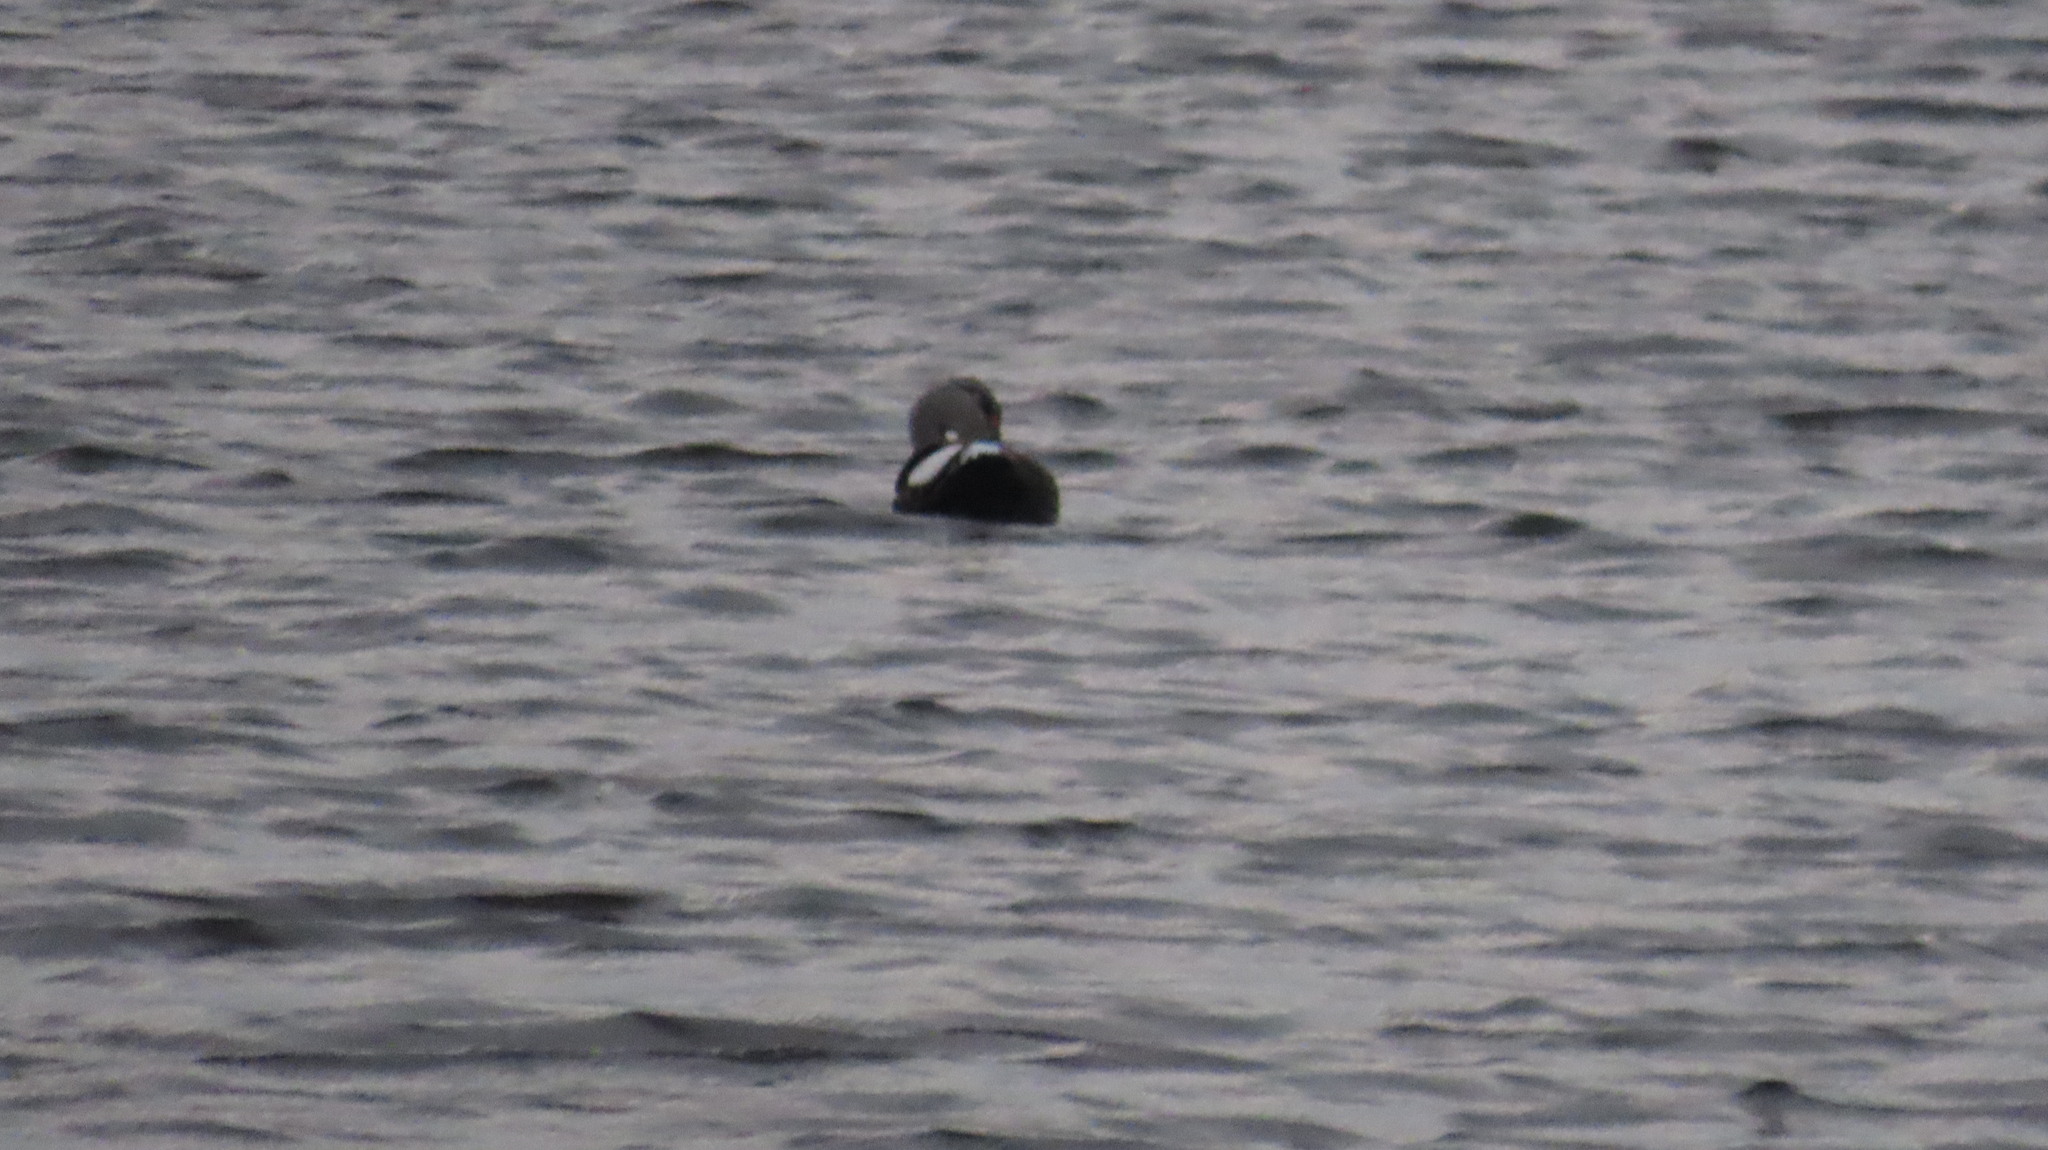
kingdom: Animalia
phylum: Chordata
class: Aves
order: Anseriformes
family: Anatidae
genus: Anas
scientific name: Anas poecilorhyncha
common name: Indian spot-billed duck
